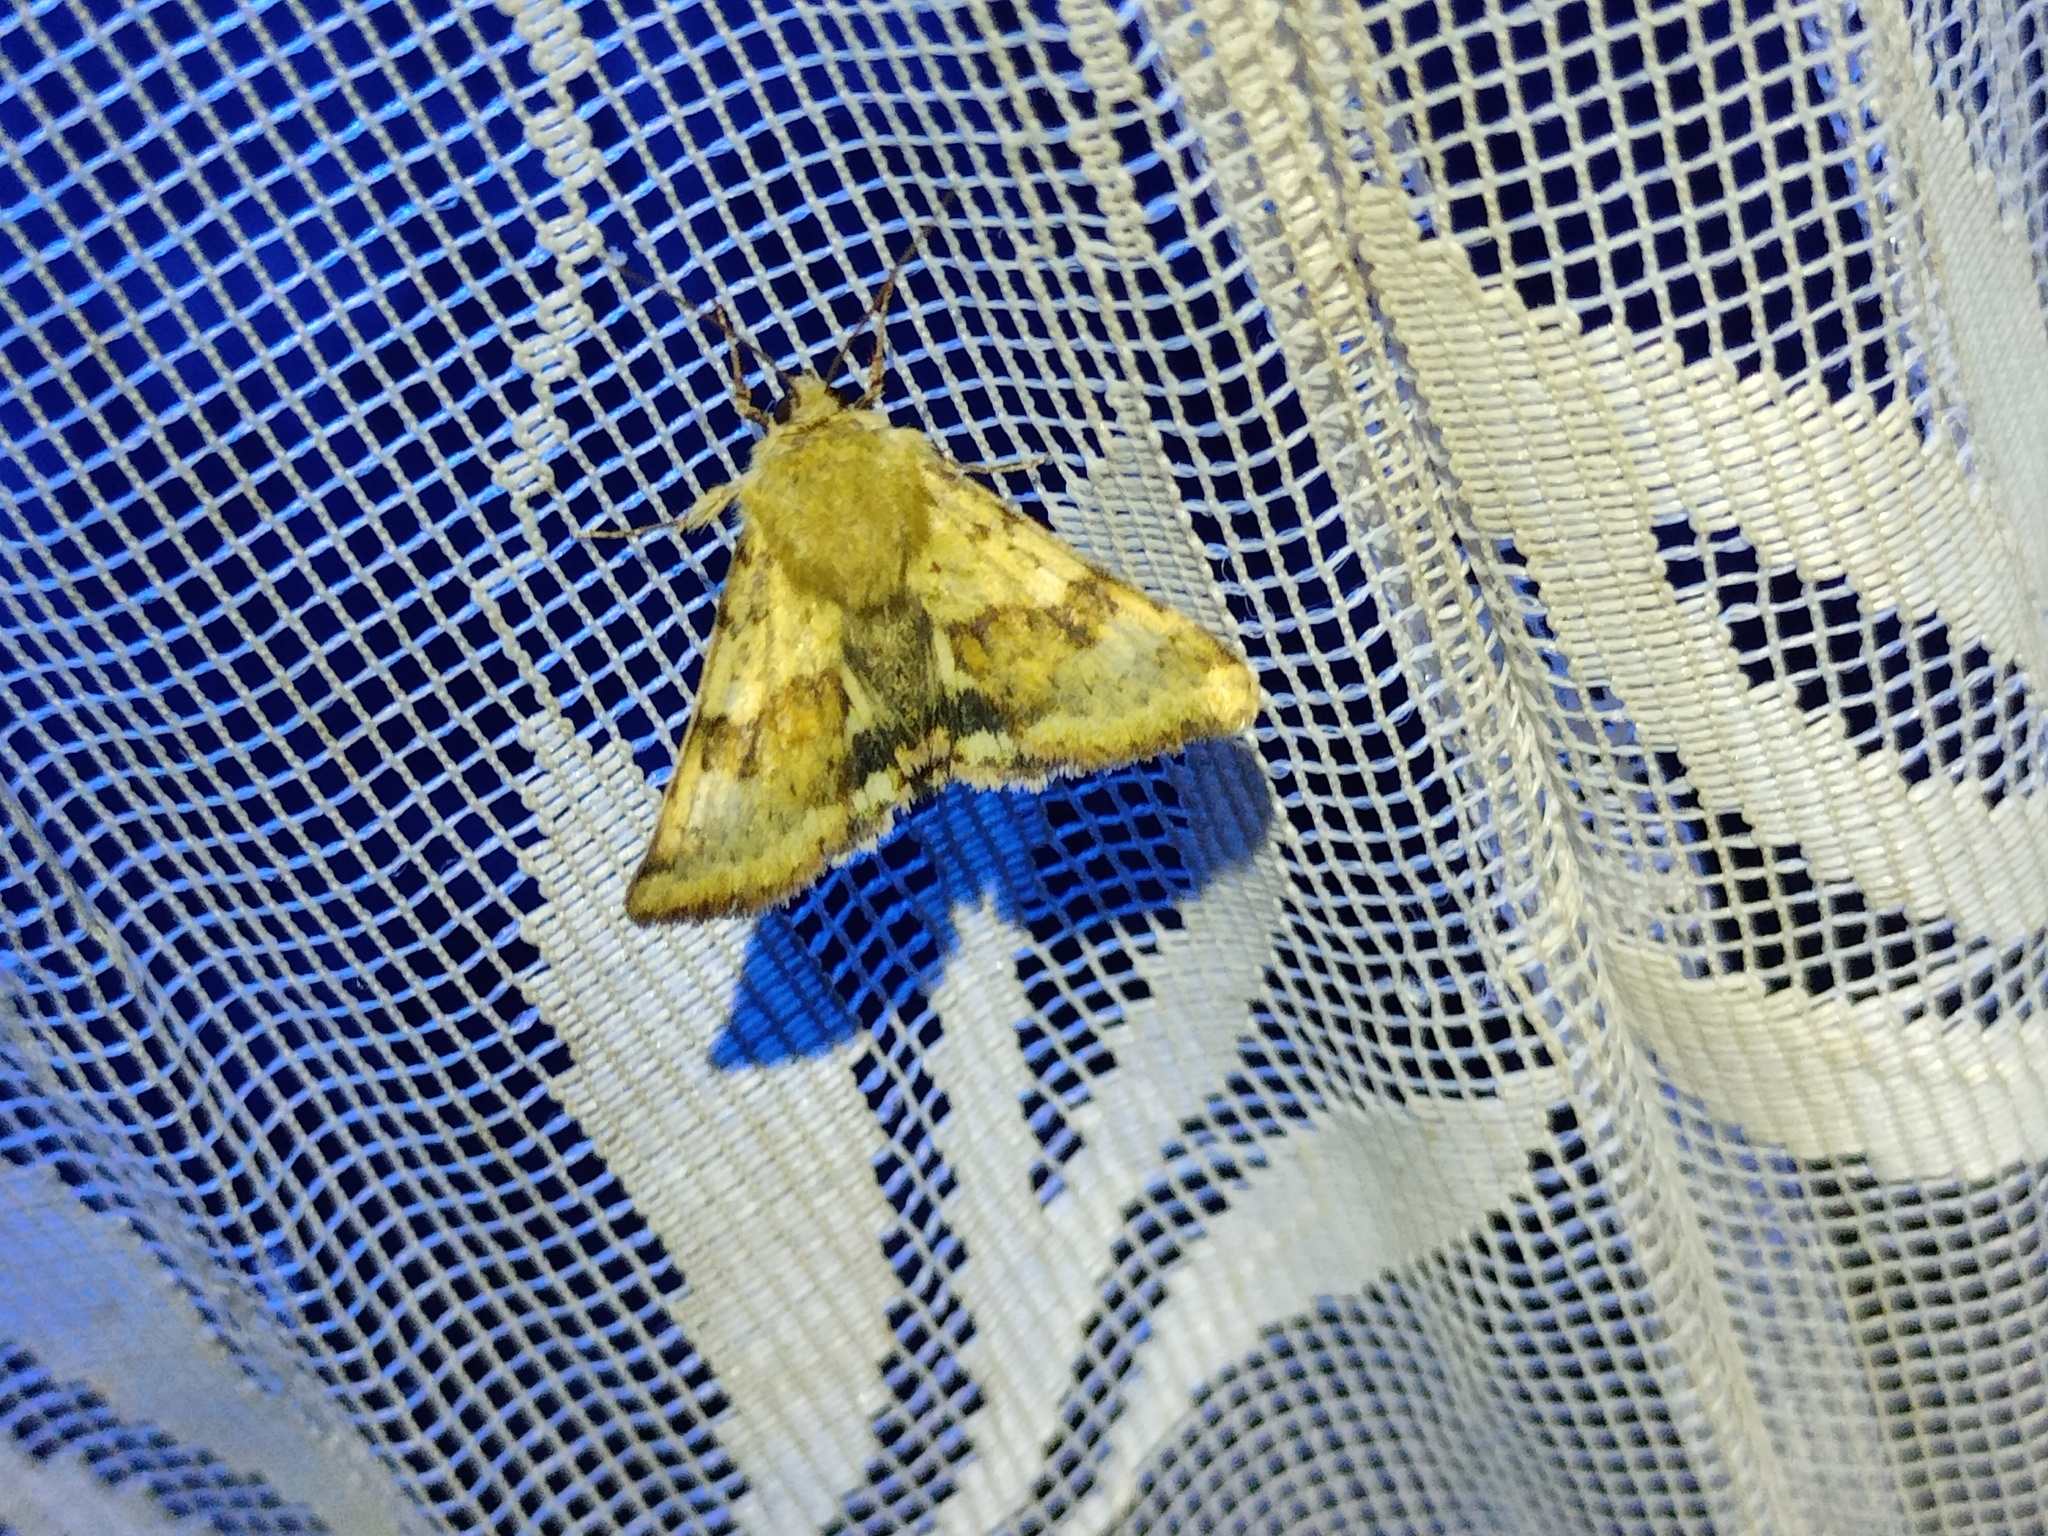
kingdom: Animalia
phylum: Arthropoda
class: Insecta
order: Lepidoptera
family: Noctuidae
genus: Heliothis
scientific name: Heliothis viriplaca
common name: Marbled clover
